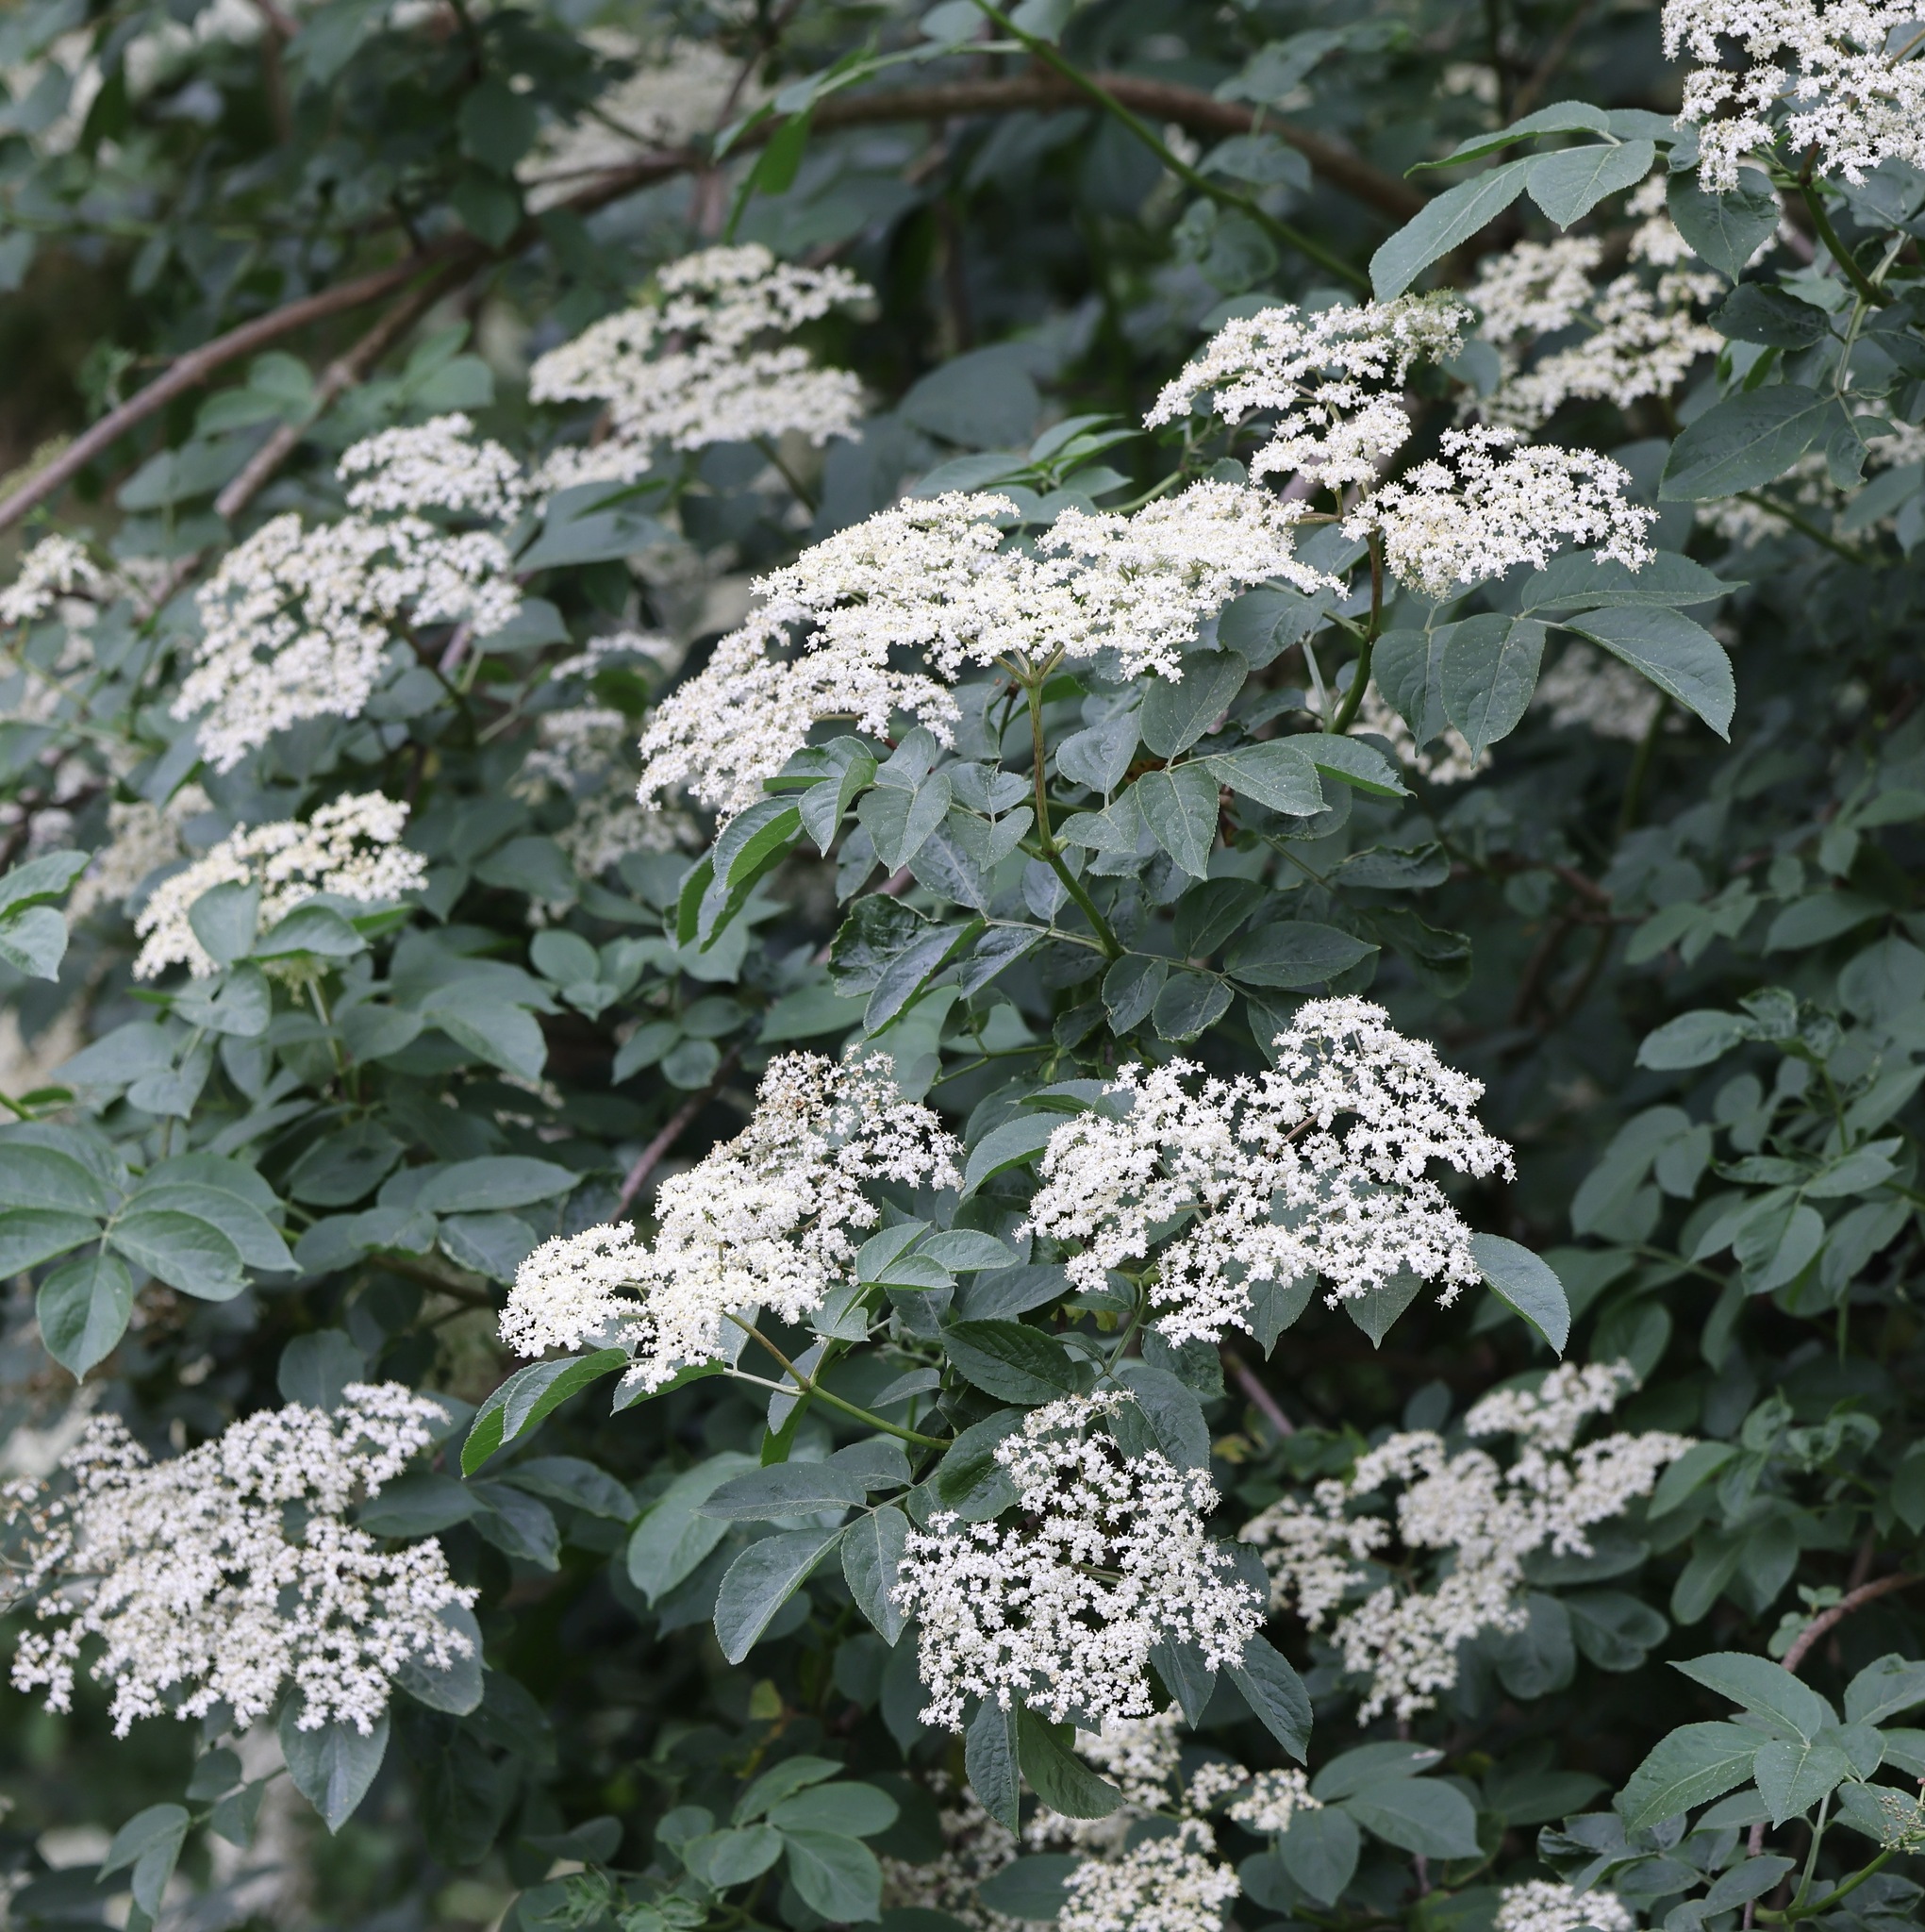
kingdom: Plantae
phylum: Tracheophyta
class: Magnoliopsida
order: Dipsacales
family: Viburnaceae
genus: Sambucus
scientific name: Sambucus nigra
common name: Elder
